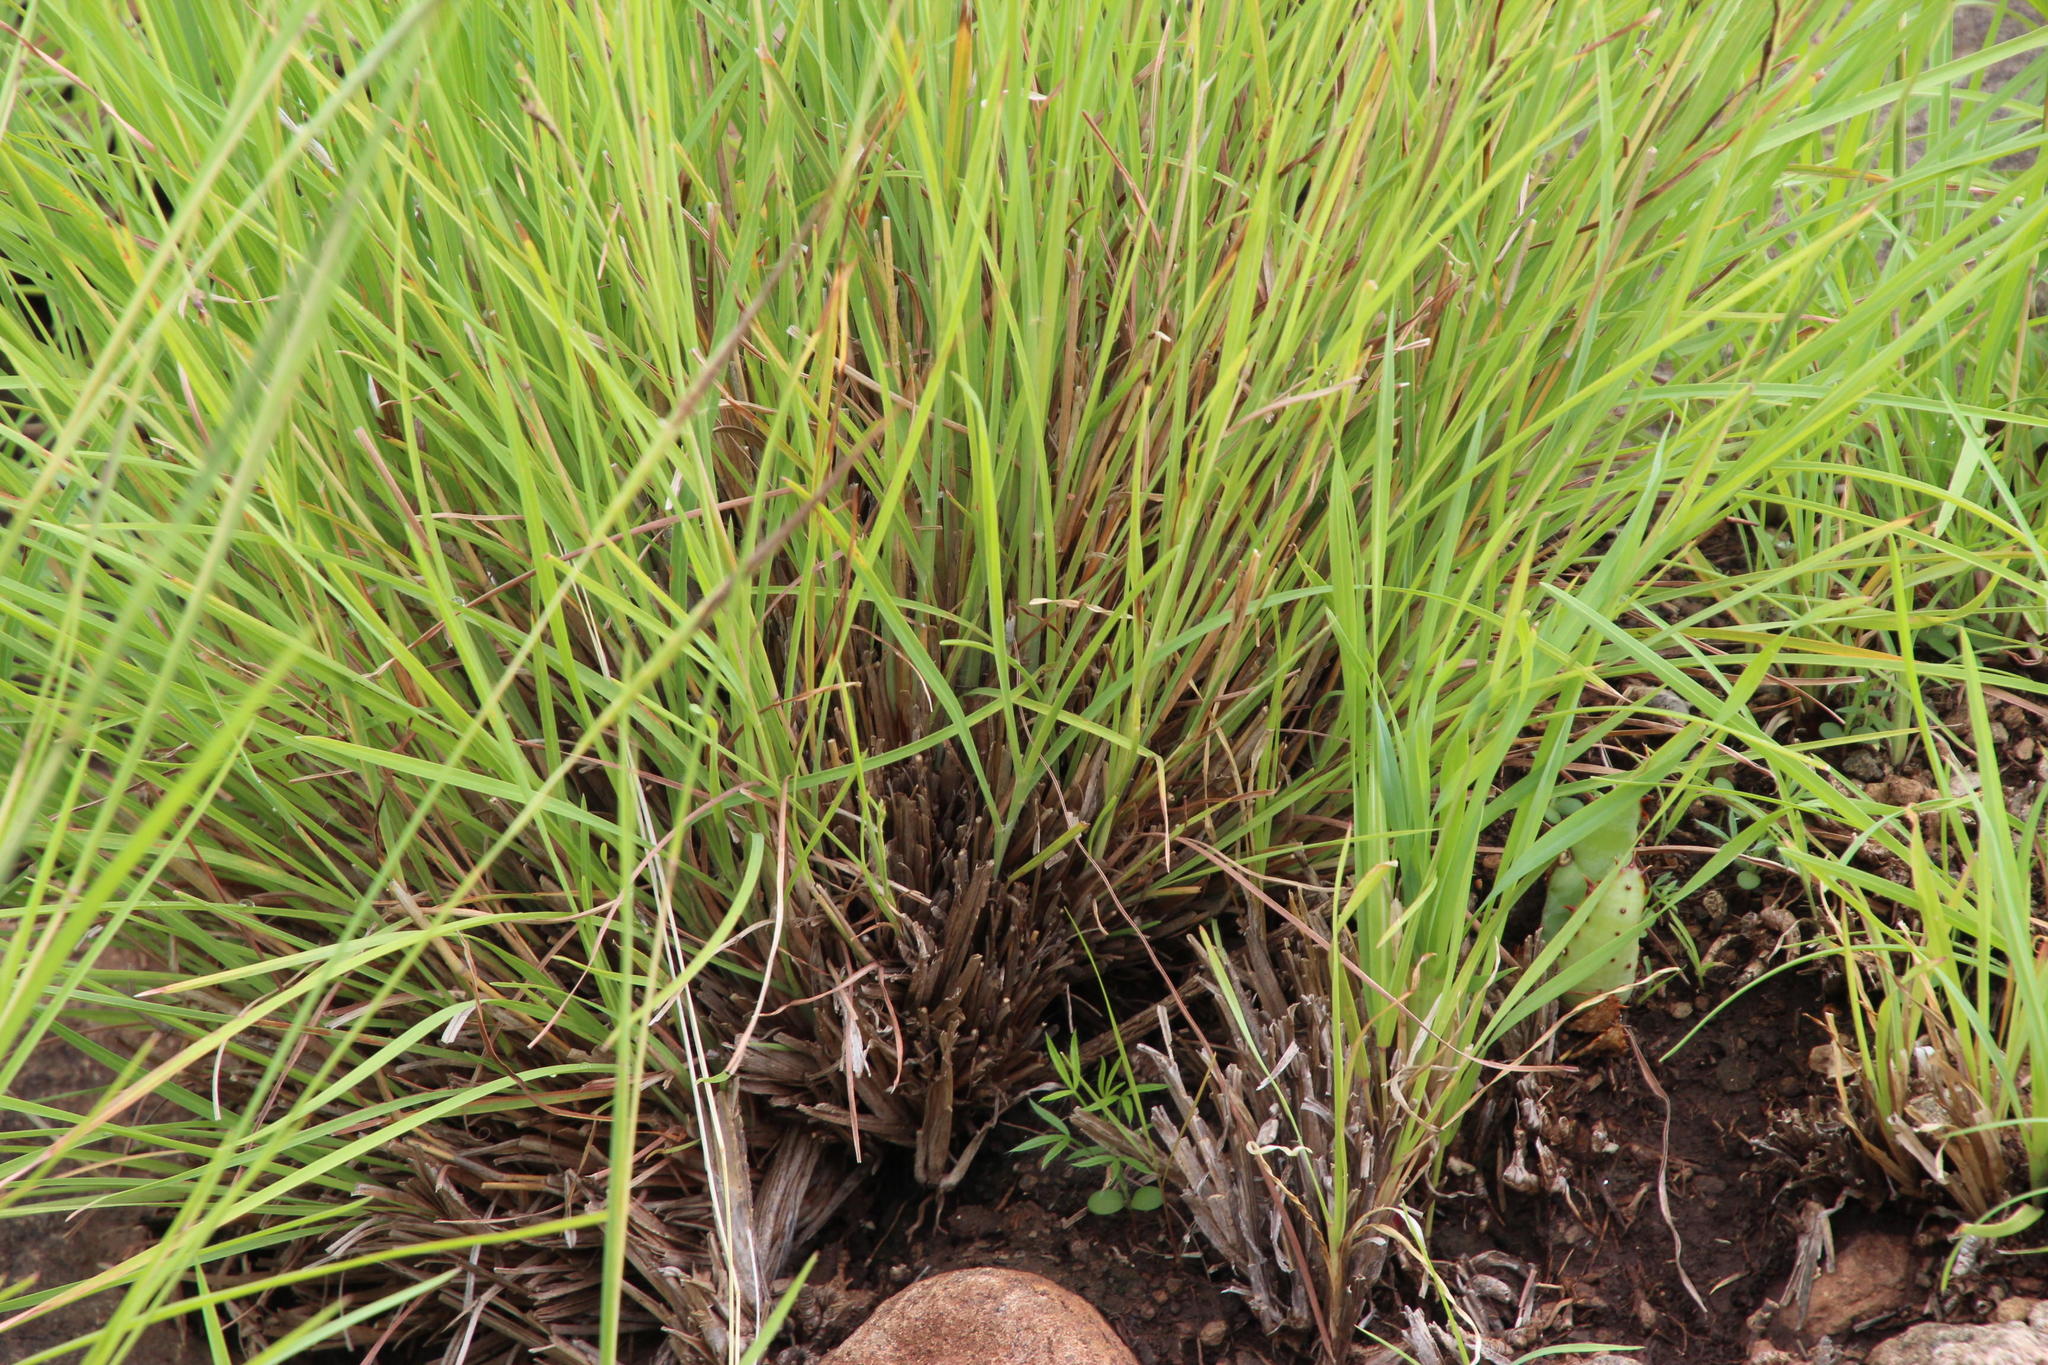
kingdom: Plantae
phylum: Tracheophyta
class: Liliopsida
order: Poales
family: Poaceae
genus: Heteropogon
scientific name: Heteropogon contortus
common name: Tanglehead
